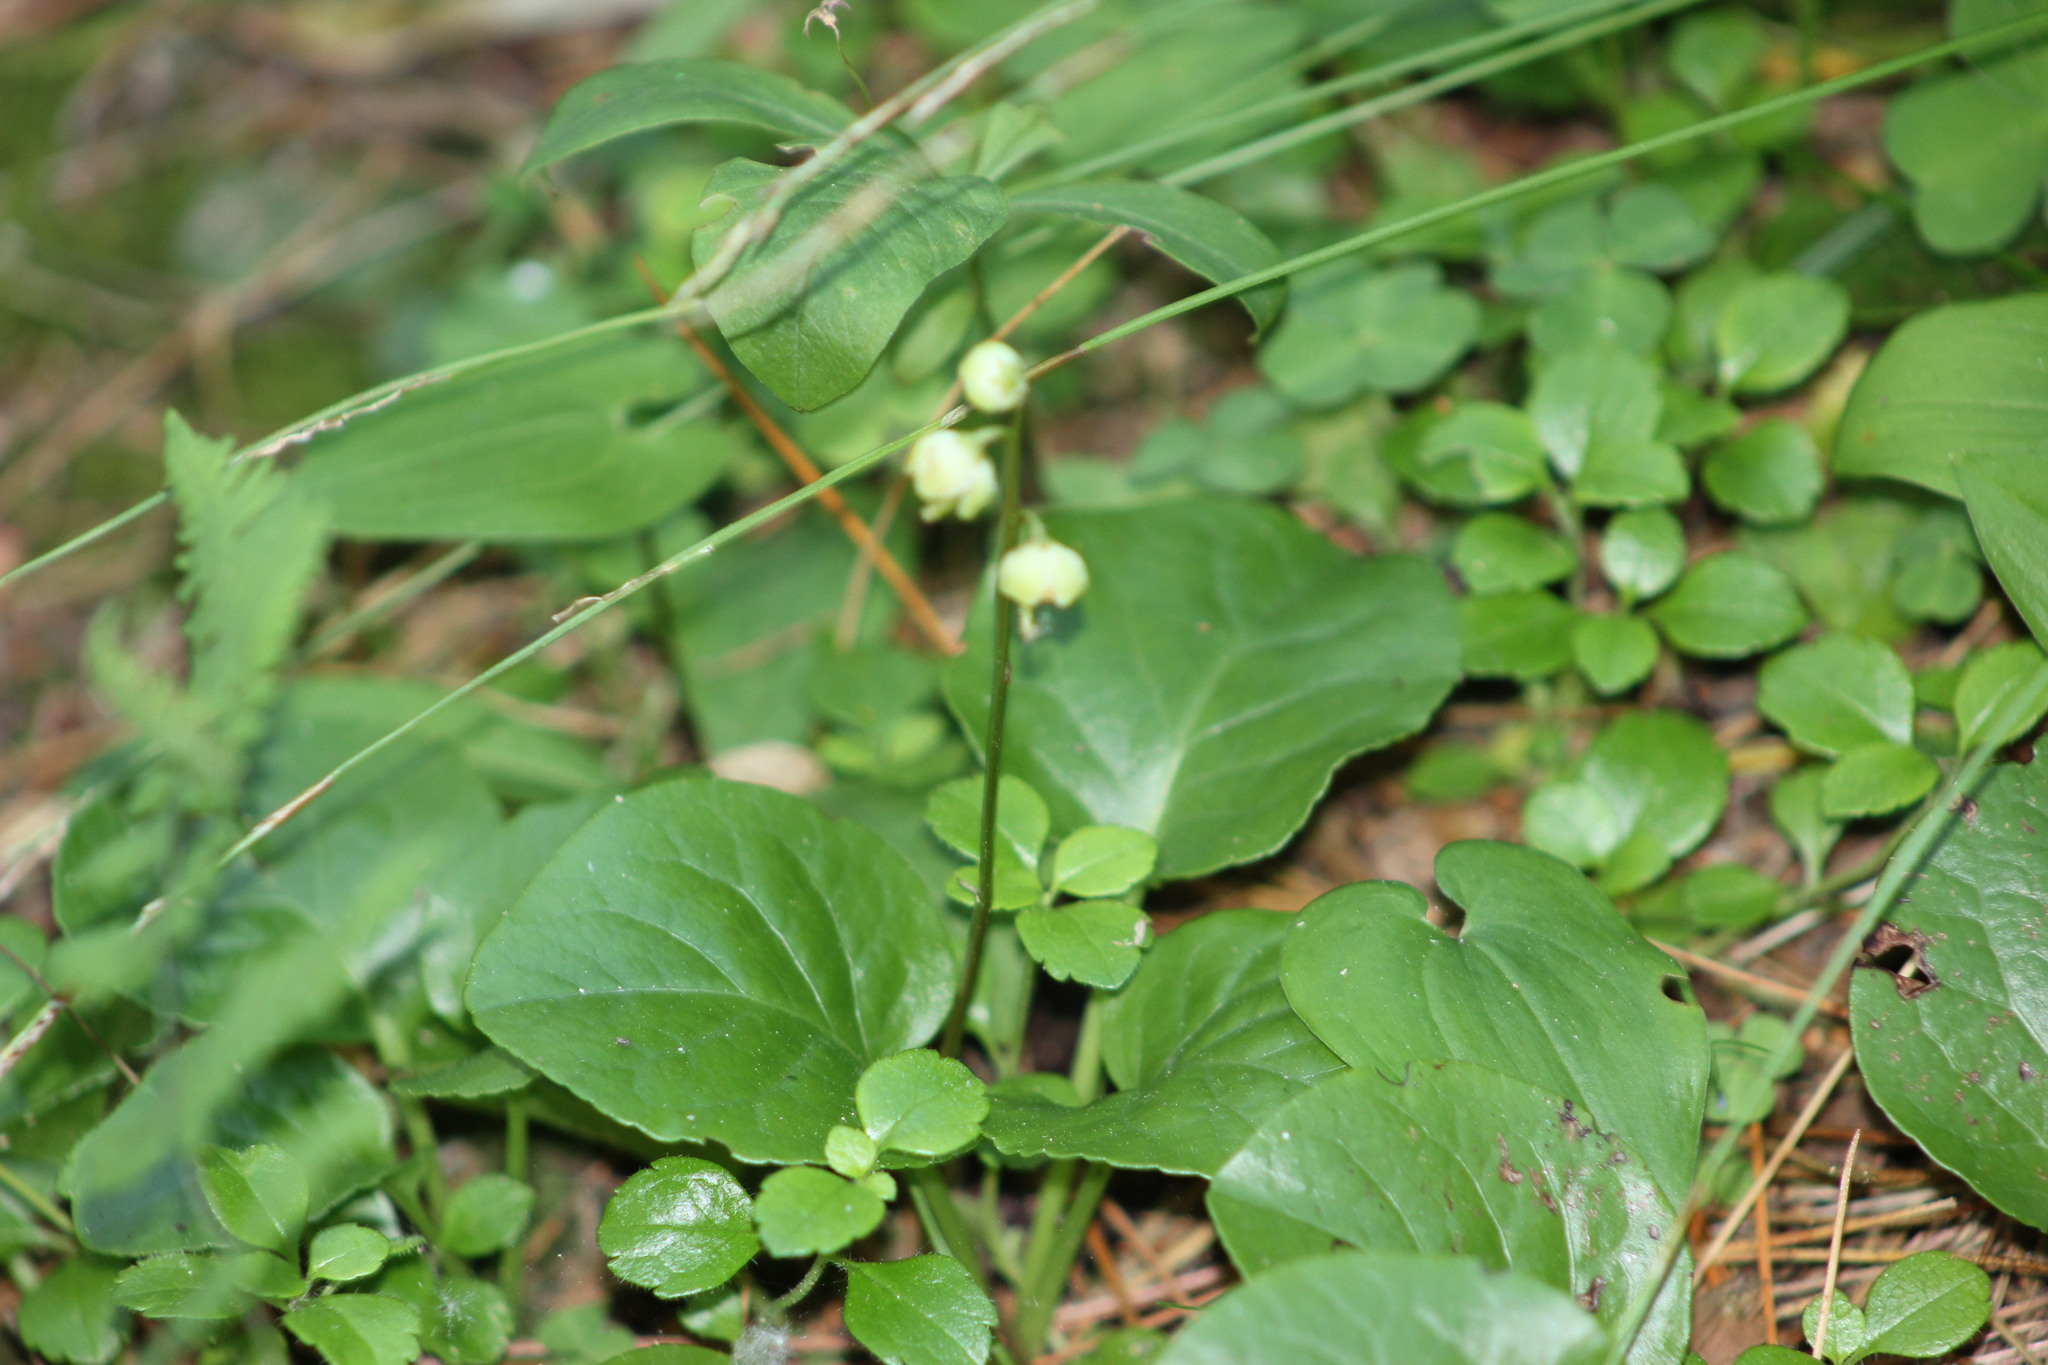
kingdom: Plantae
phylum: Tracheophyta
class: Magnoliopsida
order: Ericales
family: Ericaceae
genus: Pyrola
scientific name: Pyrola chlorantha
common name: Green wintergreen
